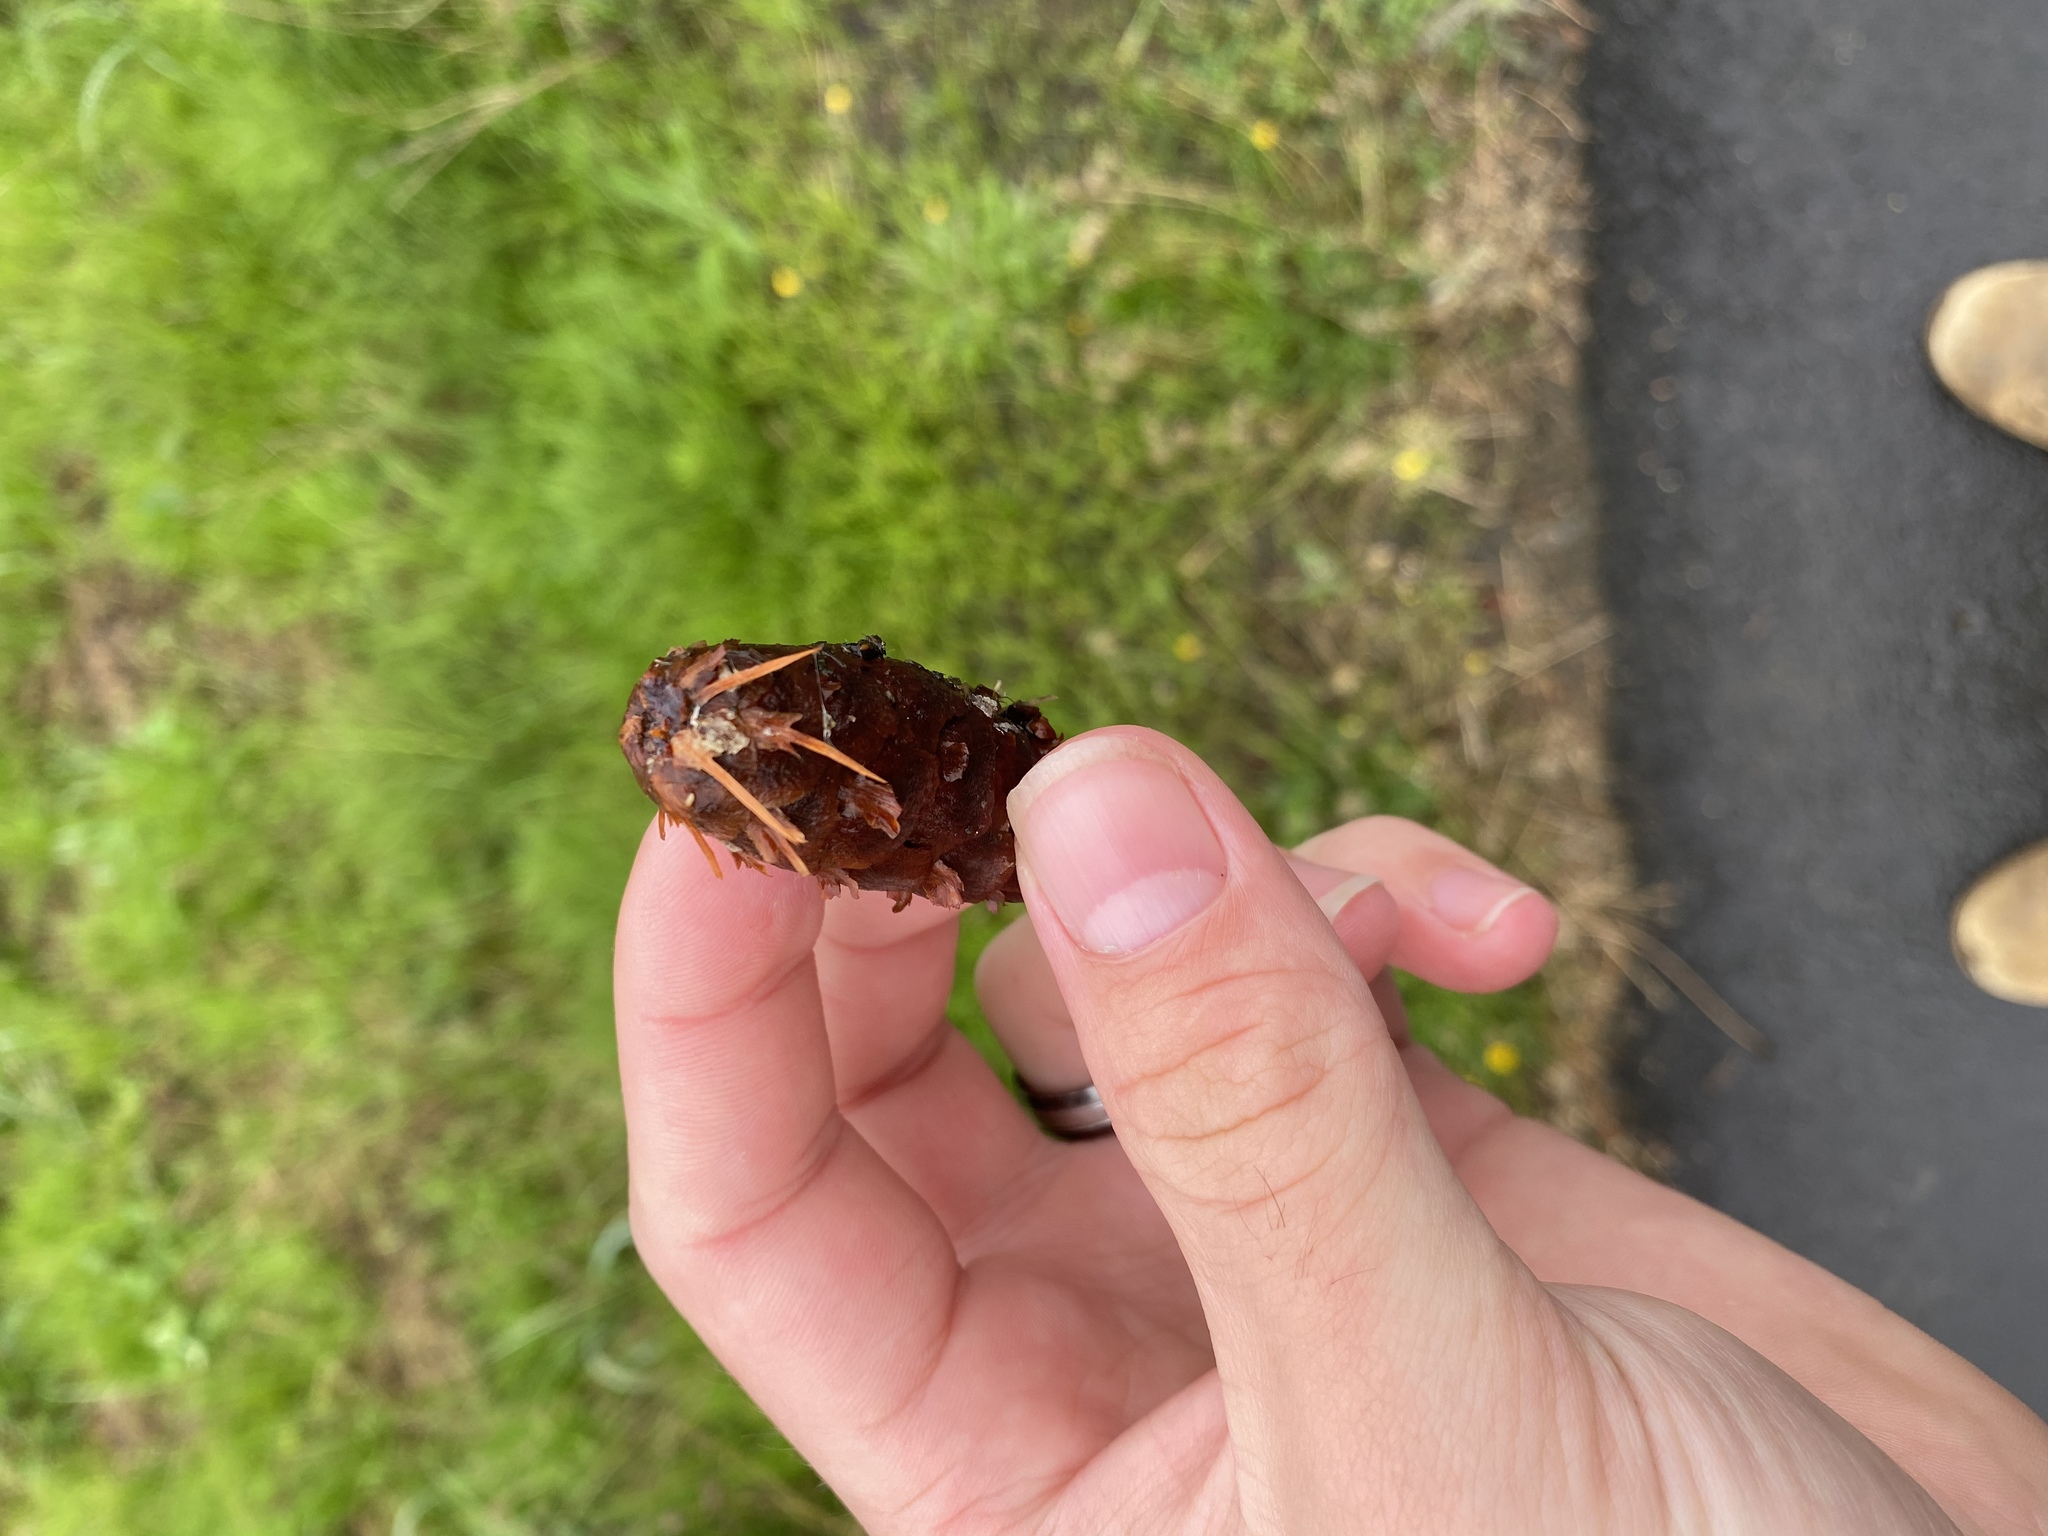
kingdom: Plantae
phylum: Tracheophyta
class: Pinopsida
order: Pinales
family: Pinaceae
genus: Pseudotsuga
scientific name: Pseudotsuga menziesii
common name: Douglas fir
